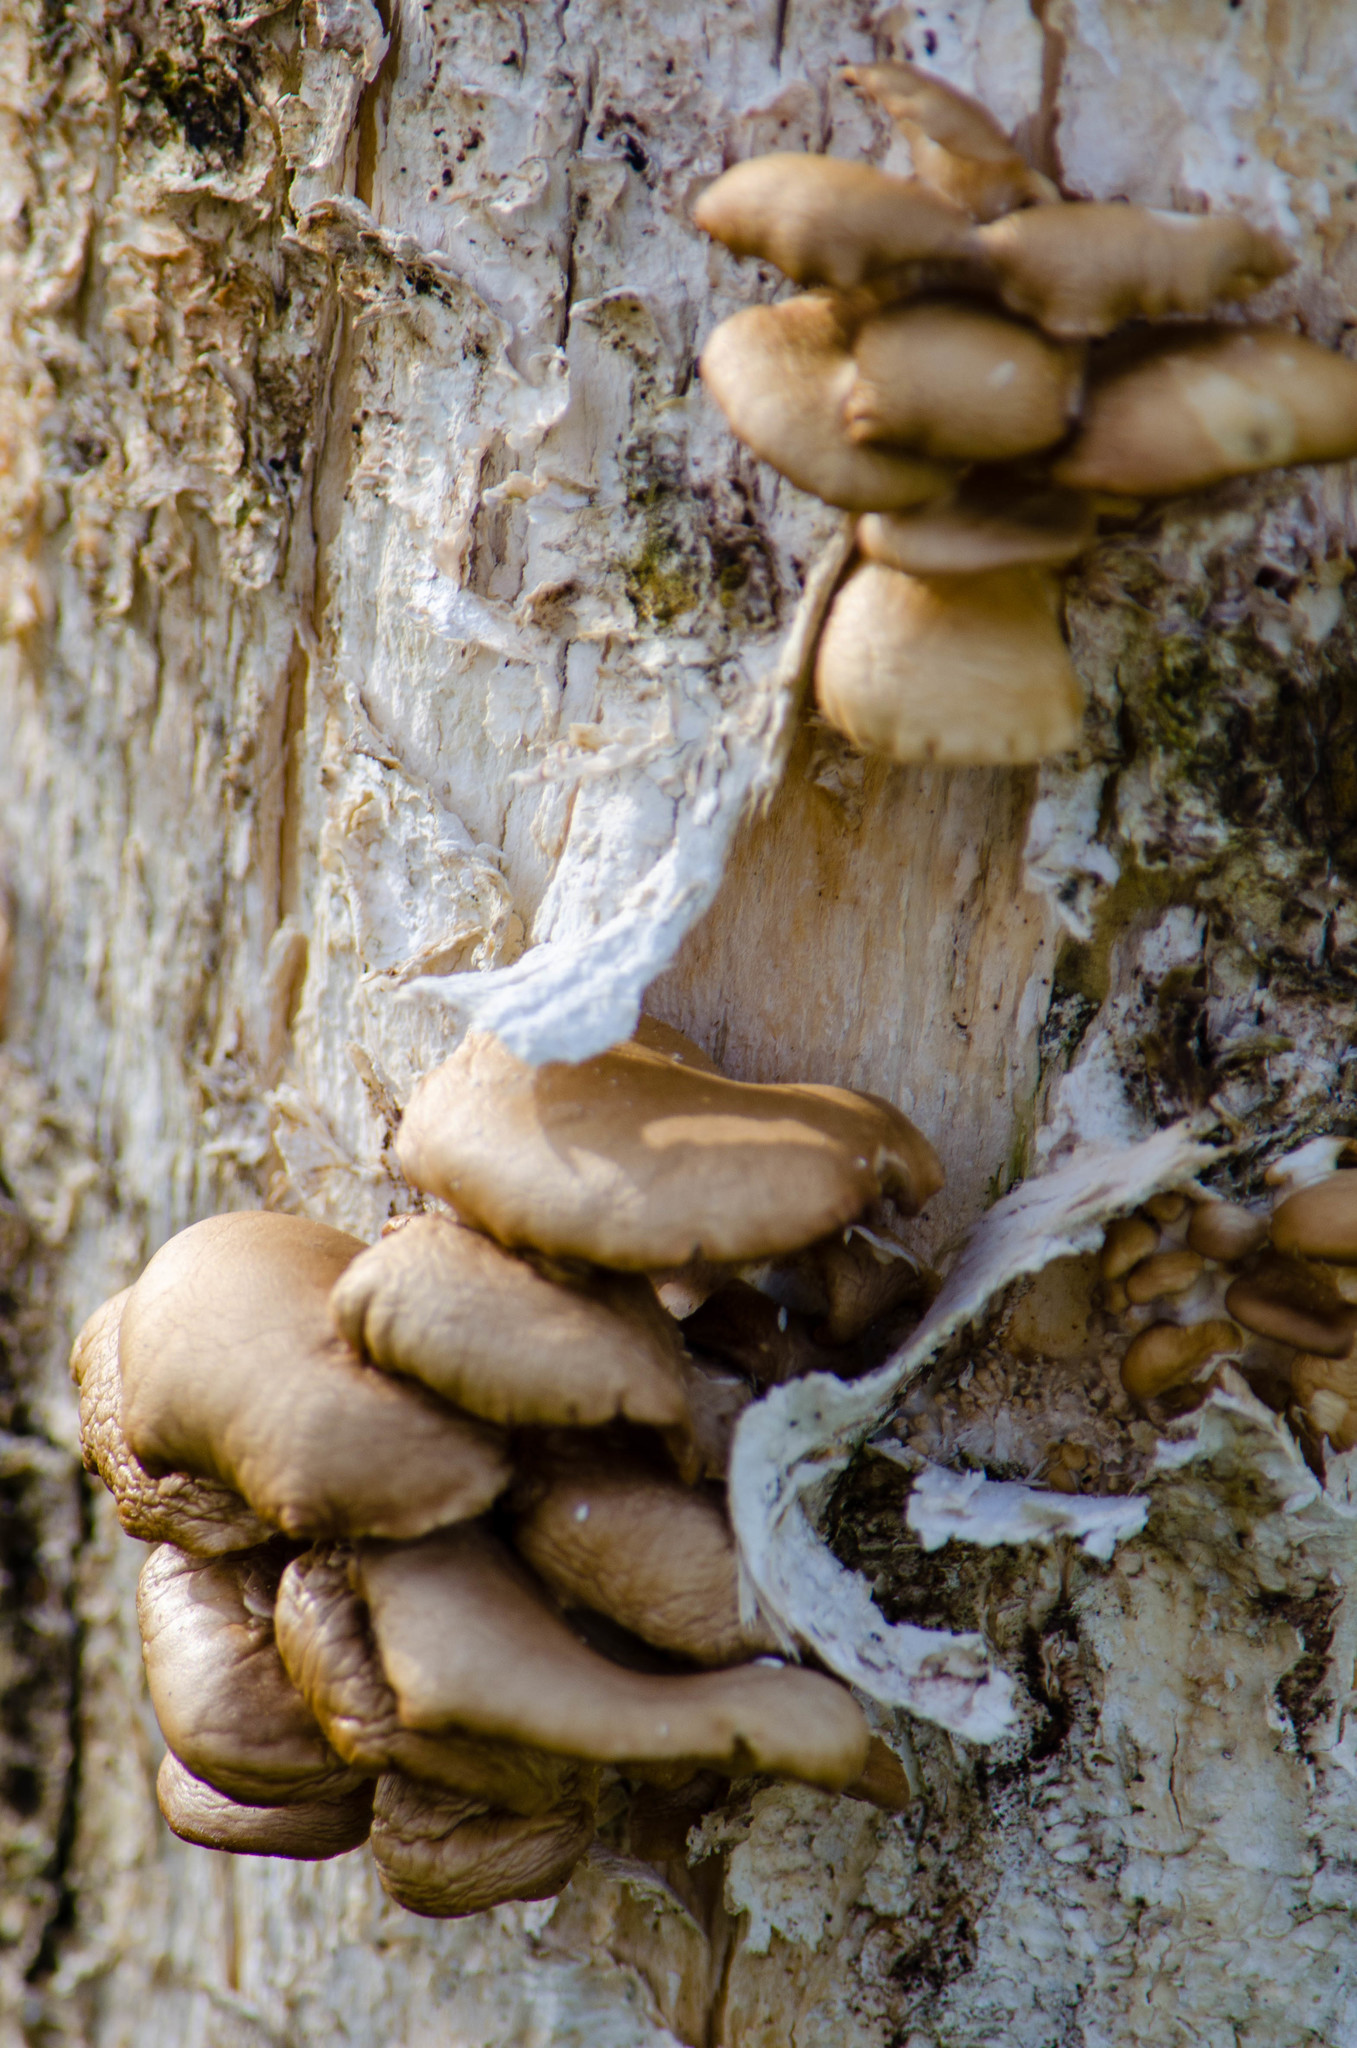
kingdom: Fungi
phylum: Basidiomycota
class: Agaricomycetes
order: Agaricales
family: Pleurotaceae
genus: Pleurotus
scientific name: Pleurotus ostreatus
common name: Oyster mushroom
